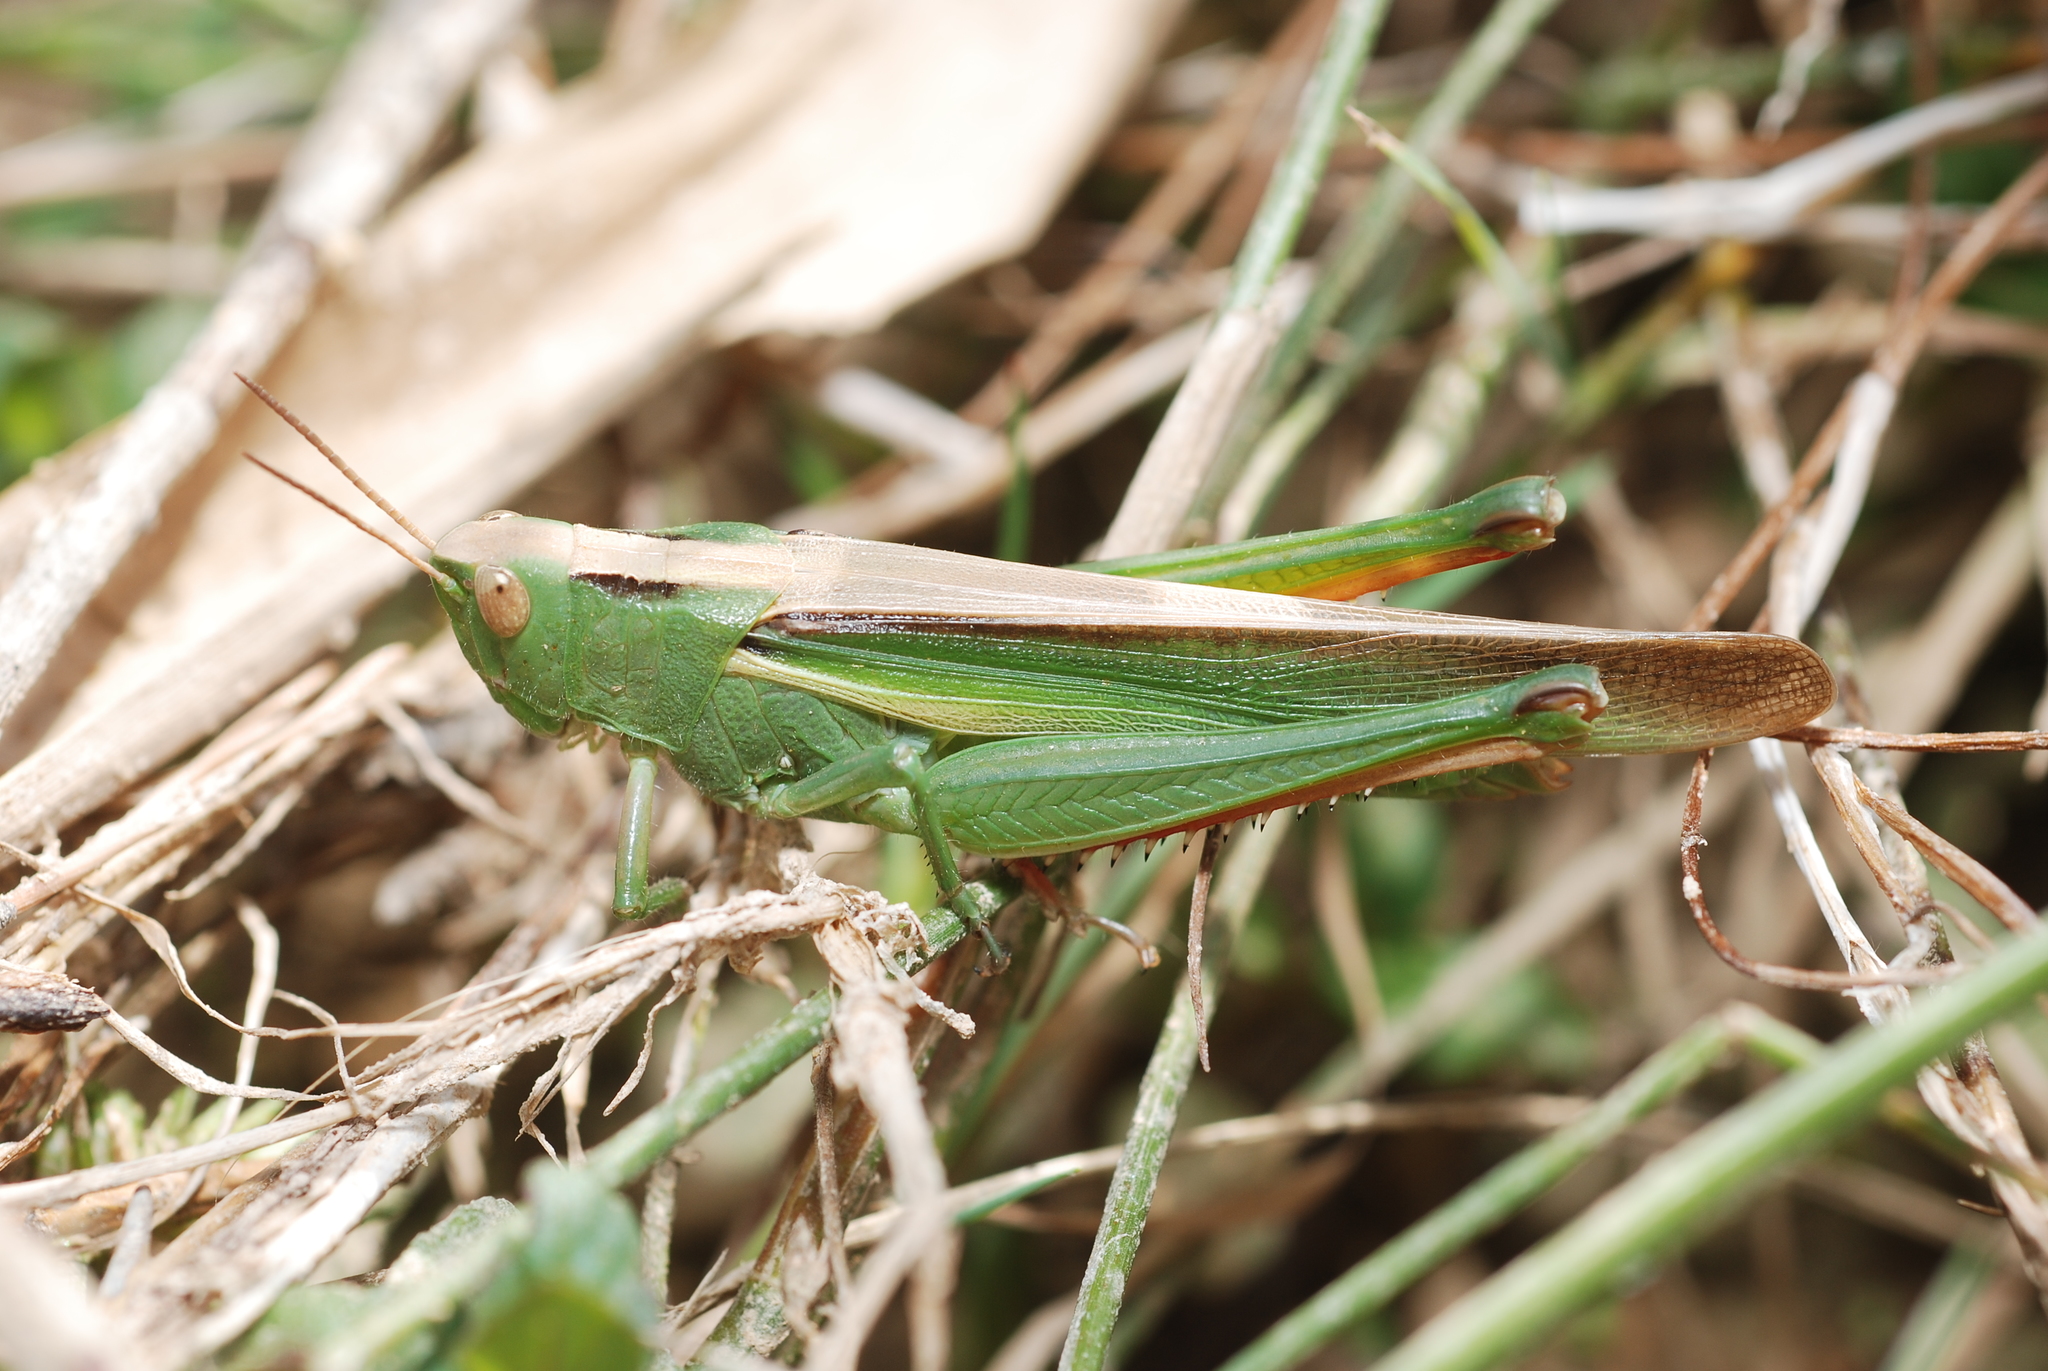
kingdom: Animalia
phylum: Arthropoda
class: Insecta
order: Orthoptera
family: Acrididae
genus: Paracinema
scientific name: Paracinema tricolor
